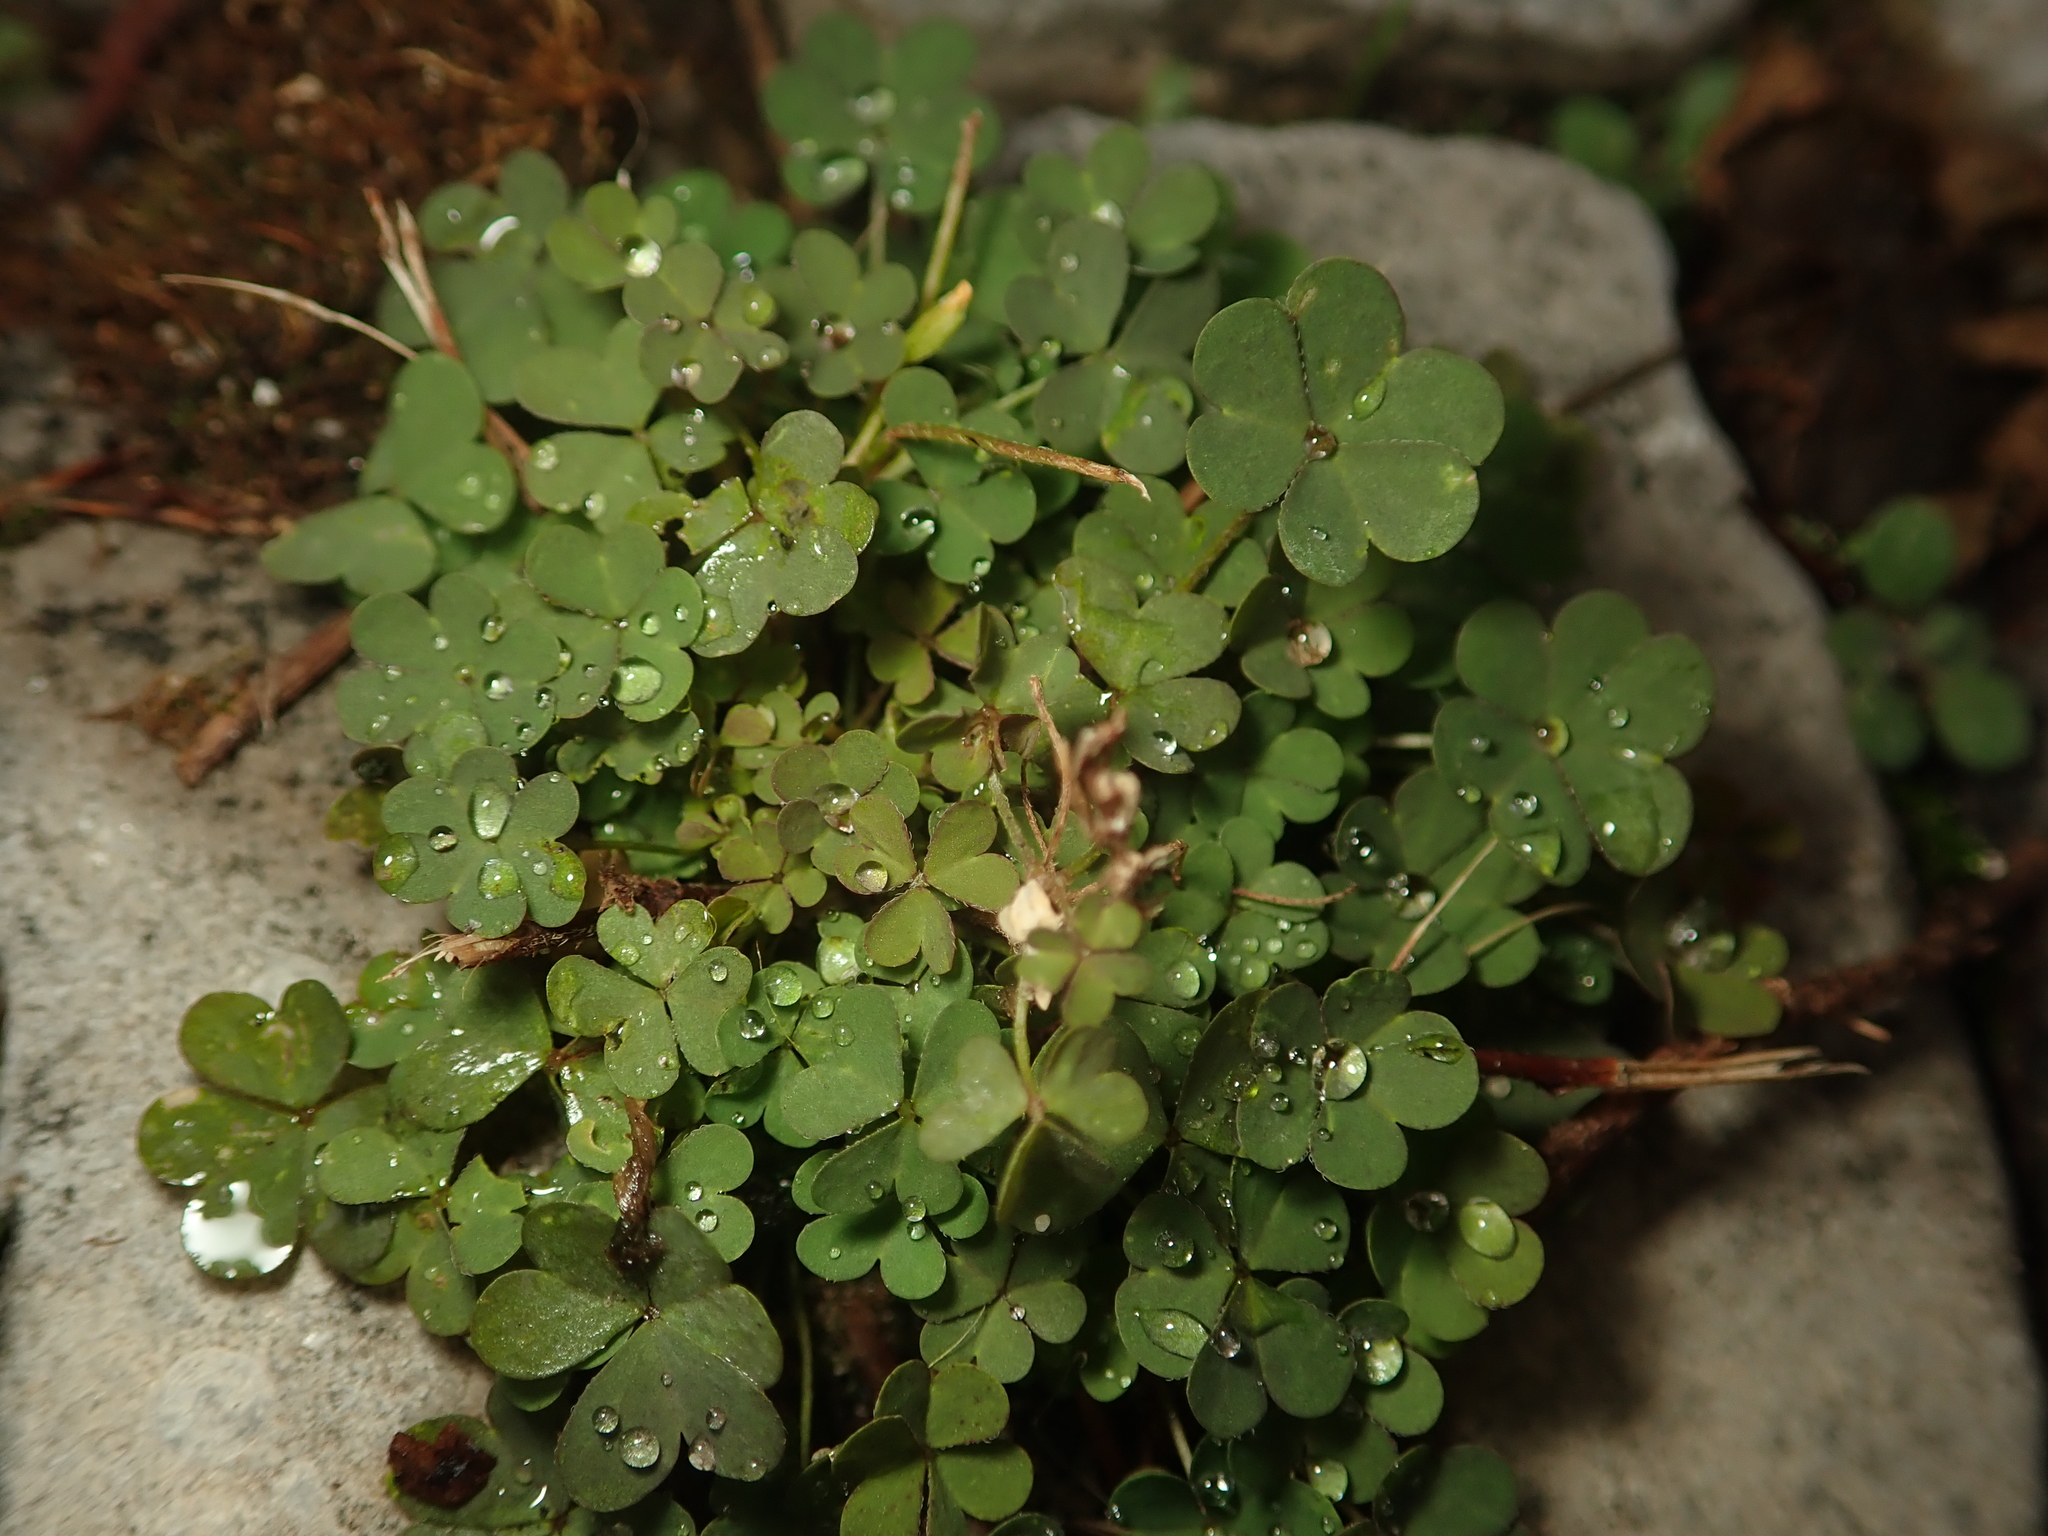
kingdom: Plantae
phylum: Tracheophyta
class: Magnoliopsida
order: Oxalidales
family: Oxalidaceae
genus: Oxalis
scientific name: Oxalis corniculata
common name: Procumbent yellow-sorrel
